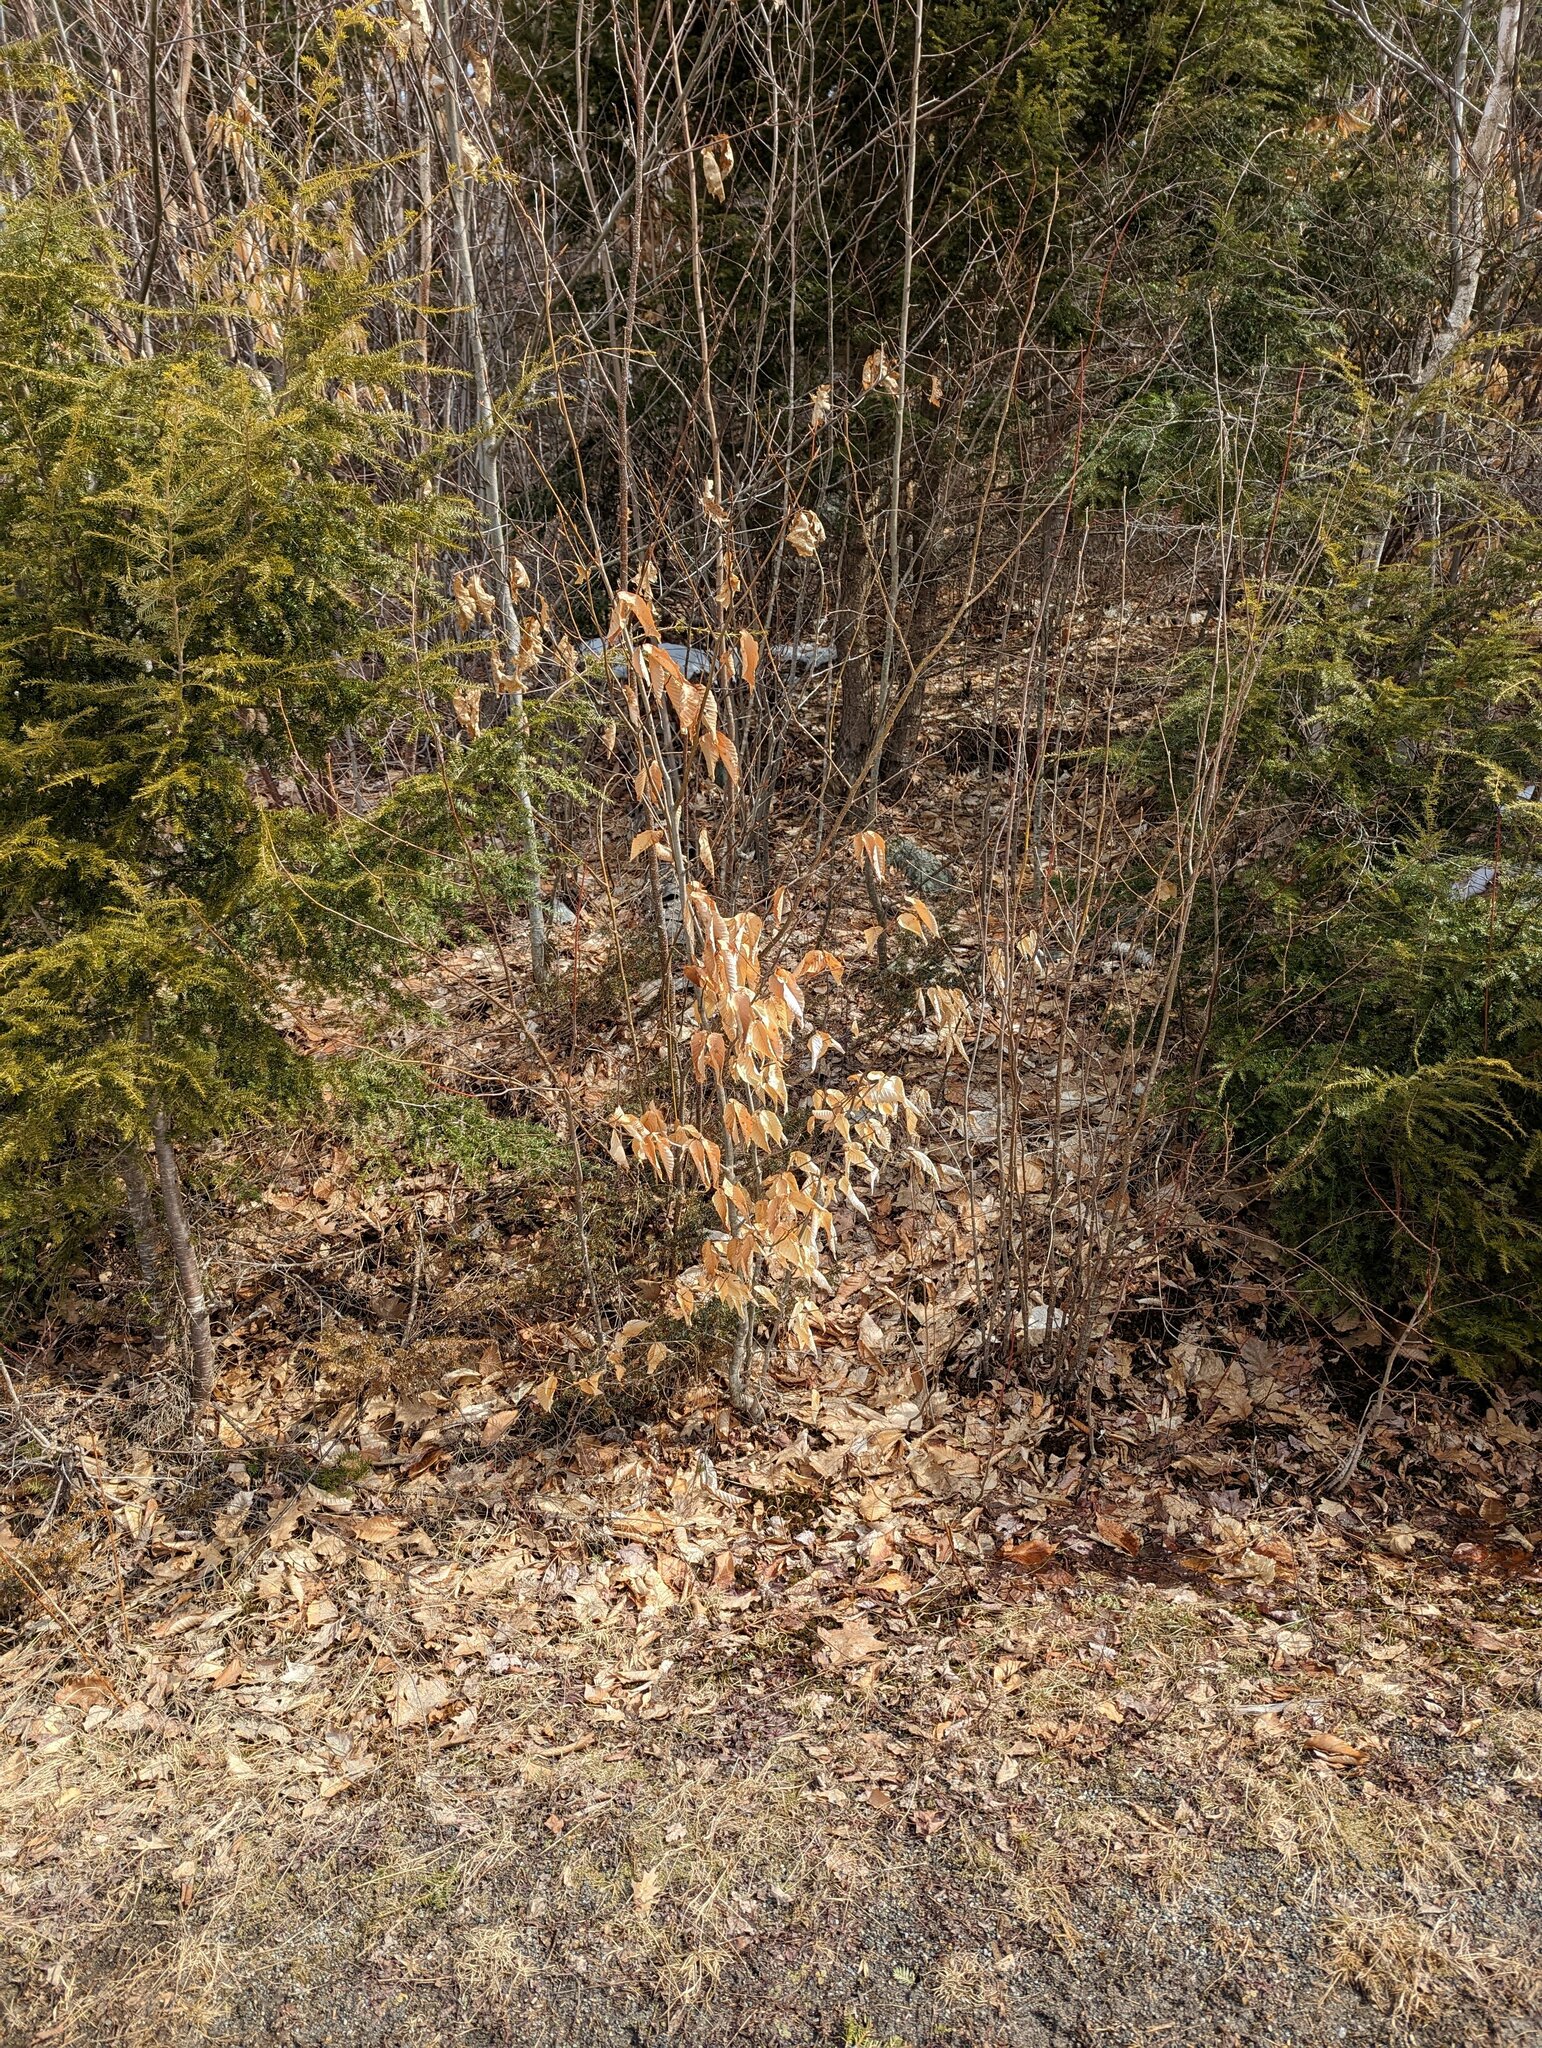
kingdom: Plantae
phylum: Tracheophyta
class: Magnoliopsida
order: Fagales
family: Fagaceae
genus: Fagus
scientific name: Fagus grandifolia
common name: American beech
